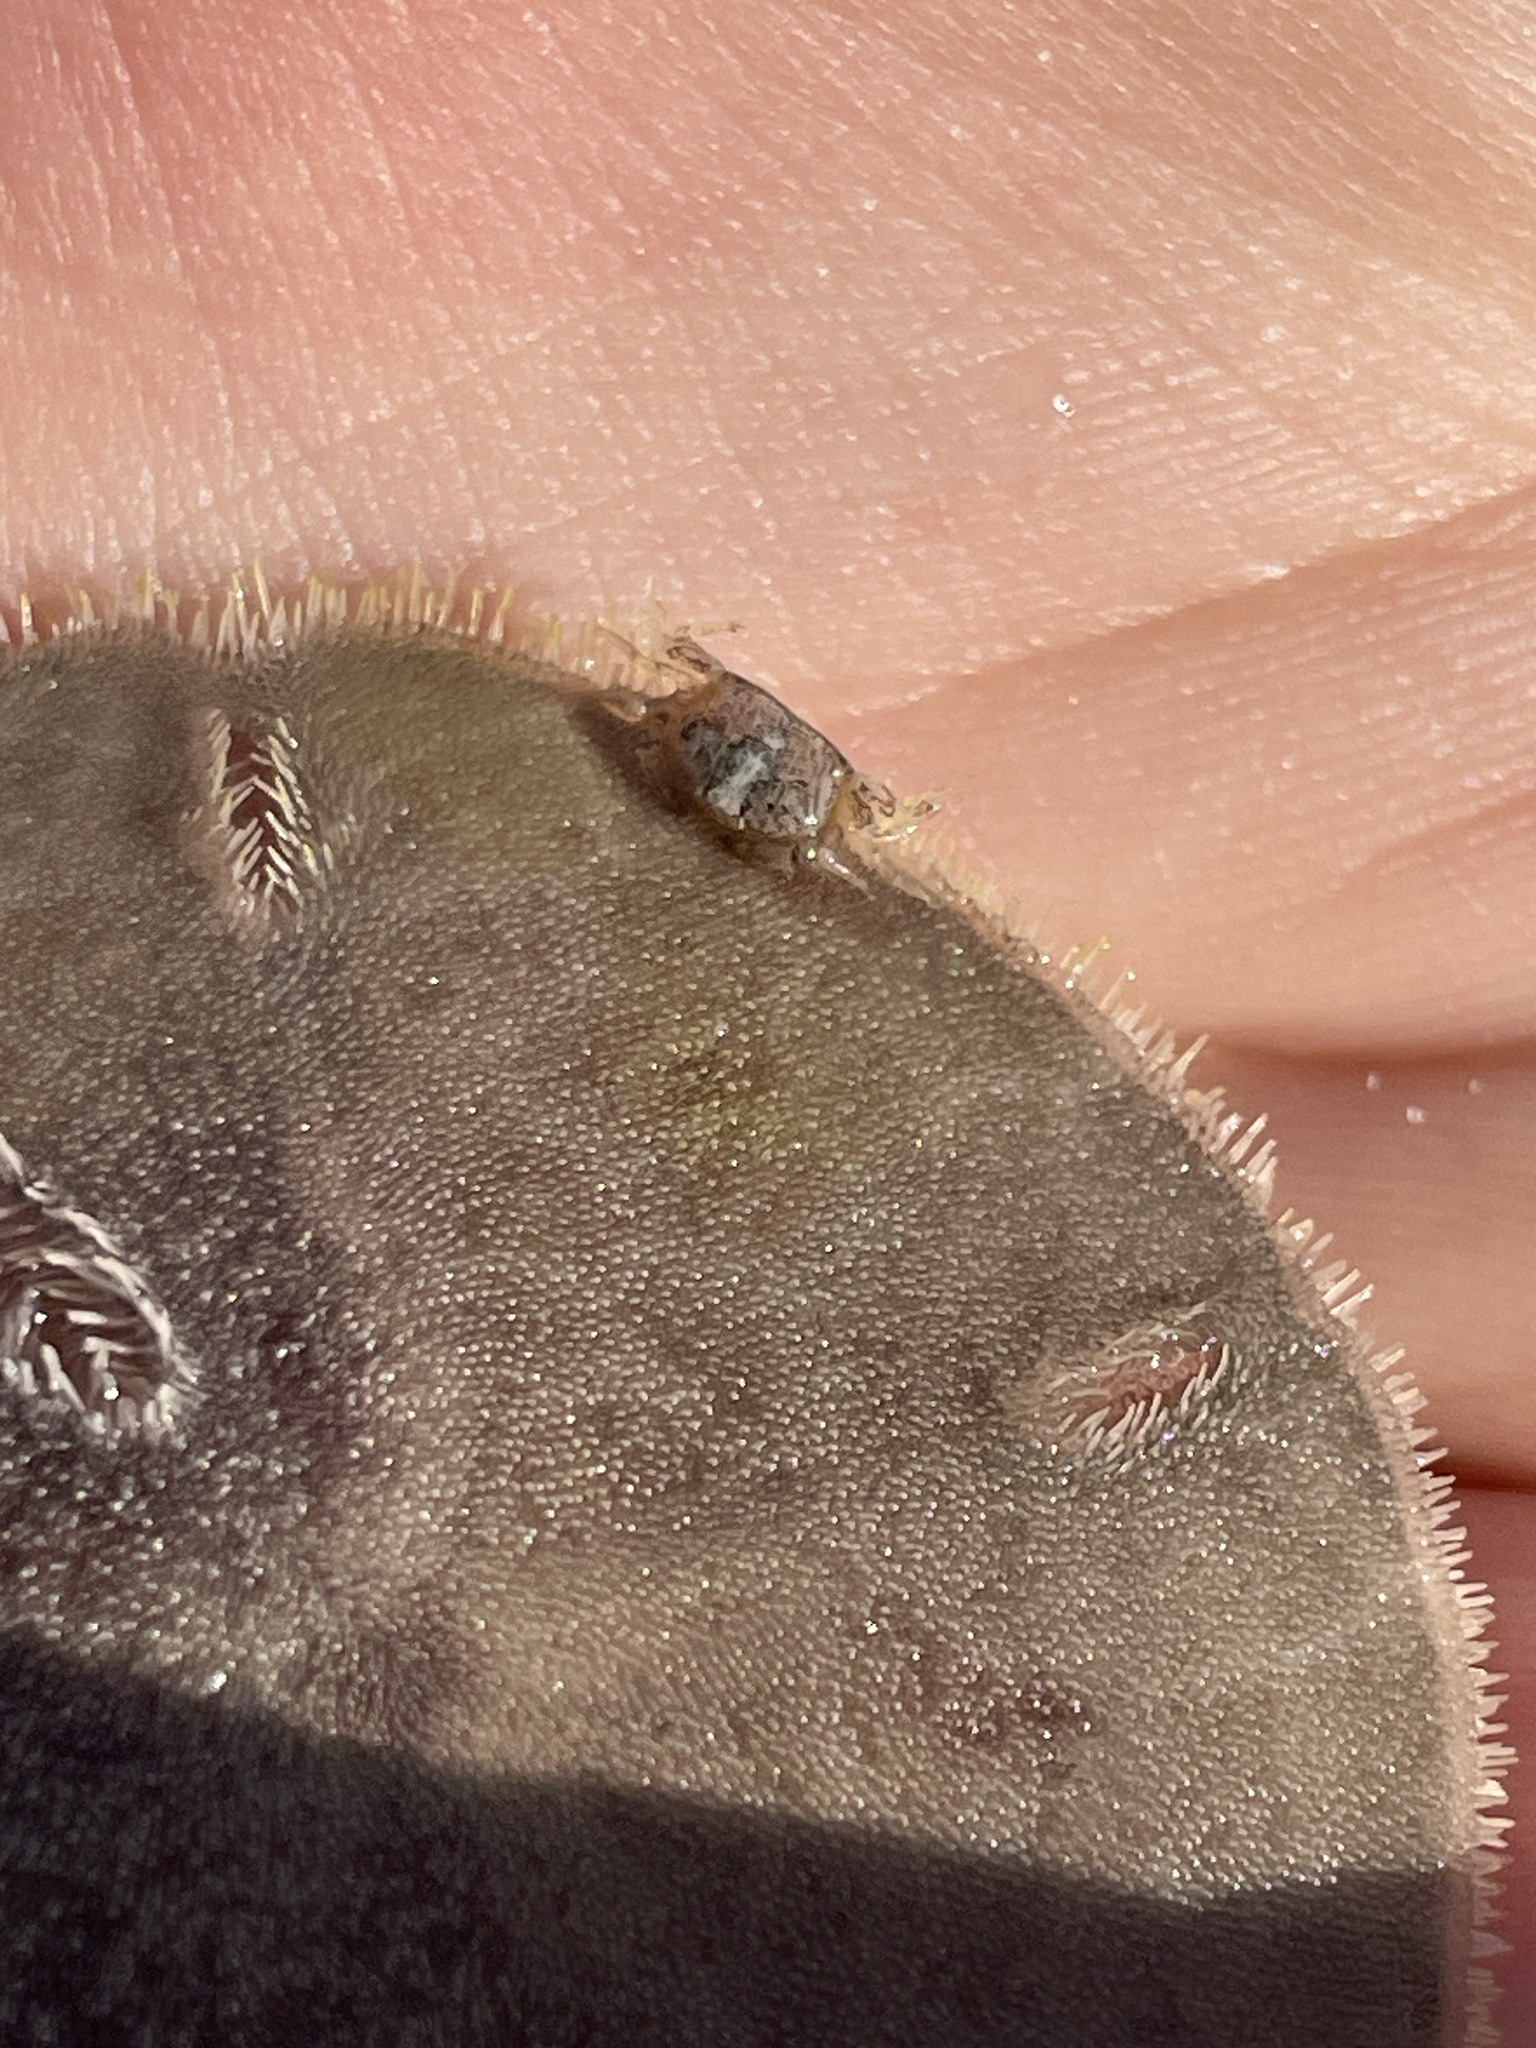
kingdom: Animalia
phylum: Arthropoda
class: Malacostraca
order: Decapoda
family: Pinnotheridae
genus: Dissodactylus
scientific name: Dissodactylus mellitae
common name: Sand-dollar pea crab
